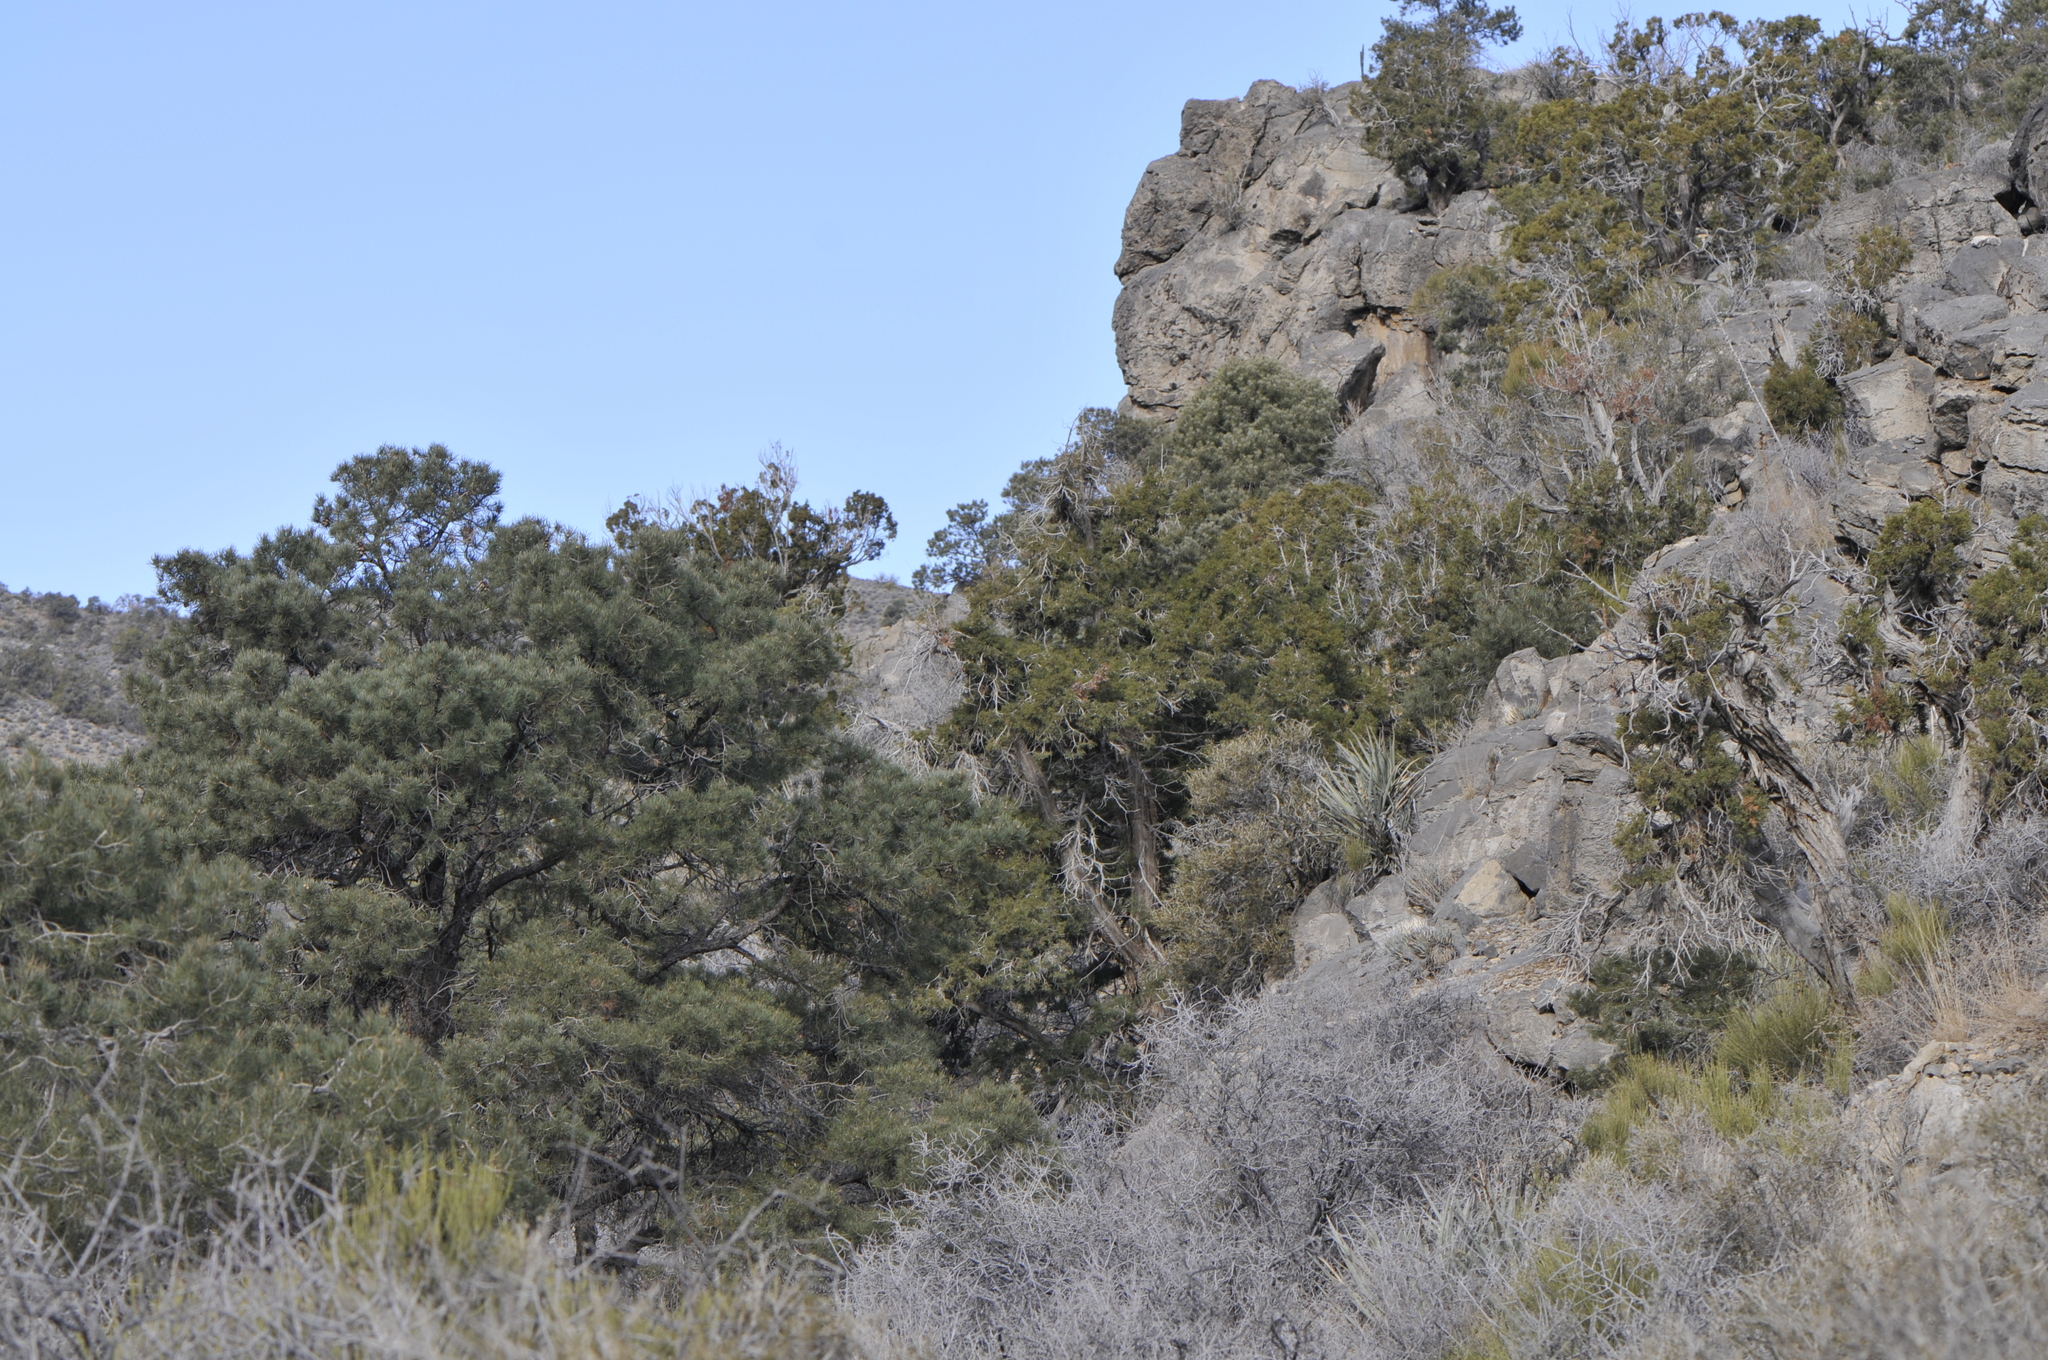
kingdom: Plantae
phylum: Tracheophyta
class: Pinopsida
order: Pinales
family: Pinaceae
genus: Pinus
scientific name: Pinus monophylla
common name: One-leaved nut pine
